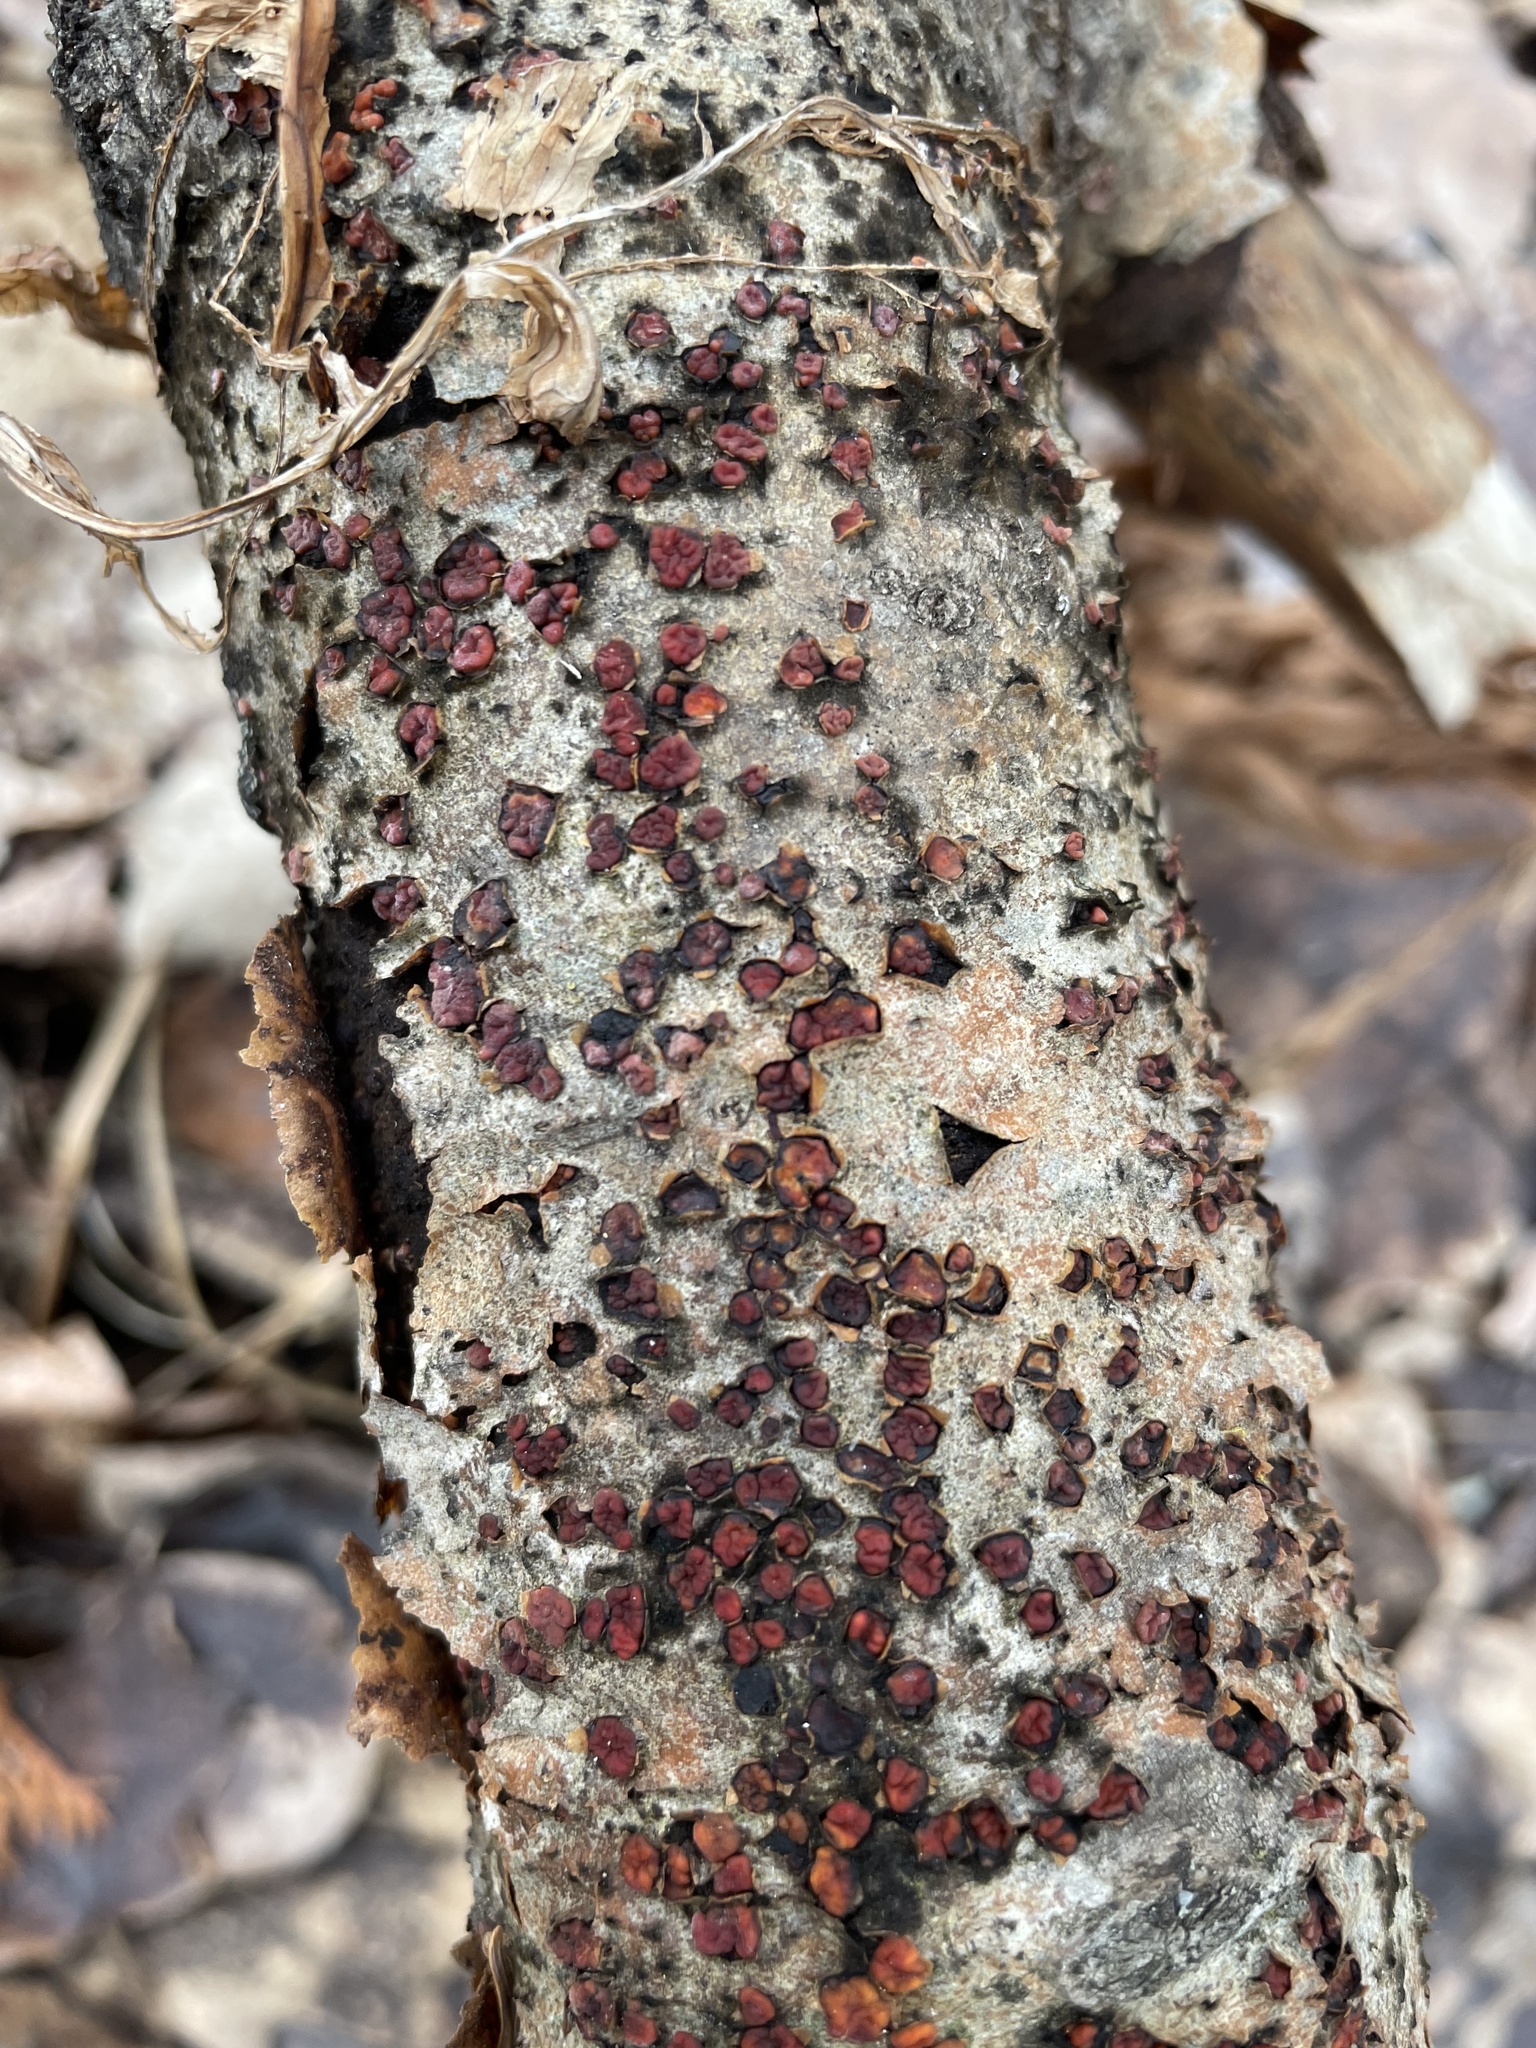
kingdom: Fungi
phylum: Basidiomycota
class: Agaricomycetes
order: Russulales
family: Peniophoraceae
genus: Peniophora
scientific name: Peniophora rufa
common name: Red tree brain fungus
